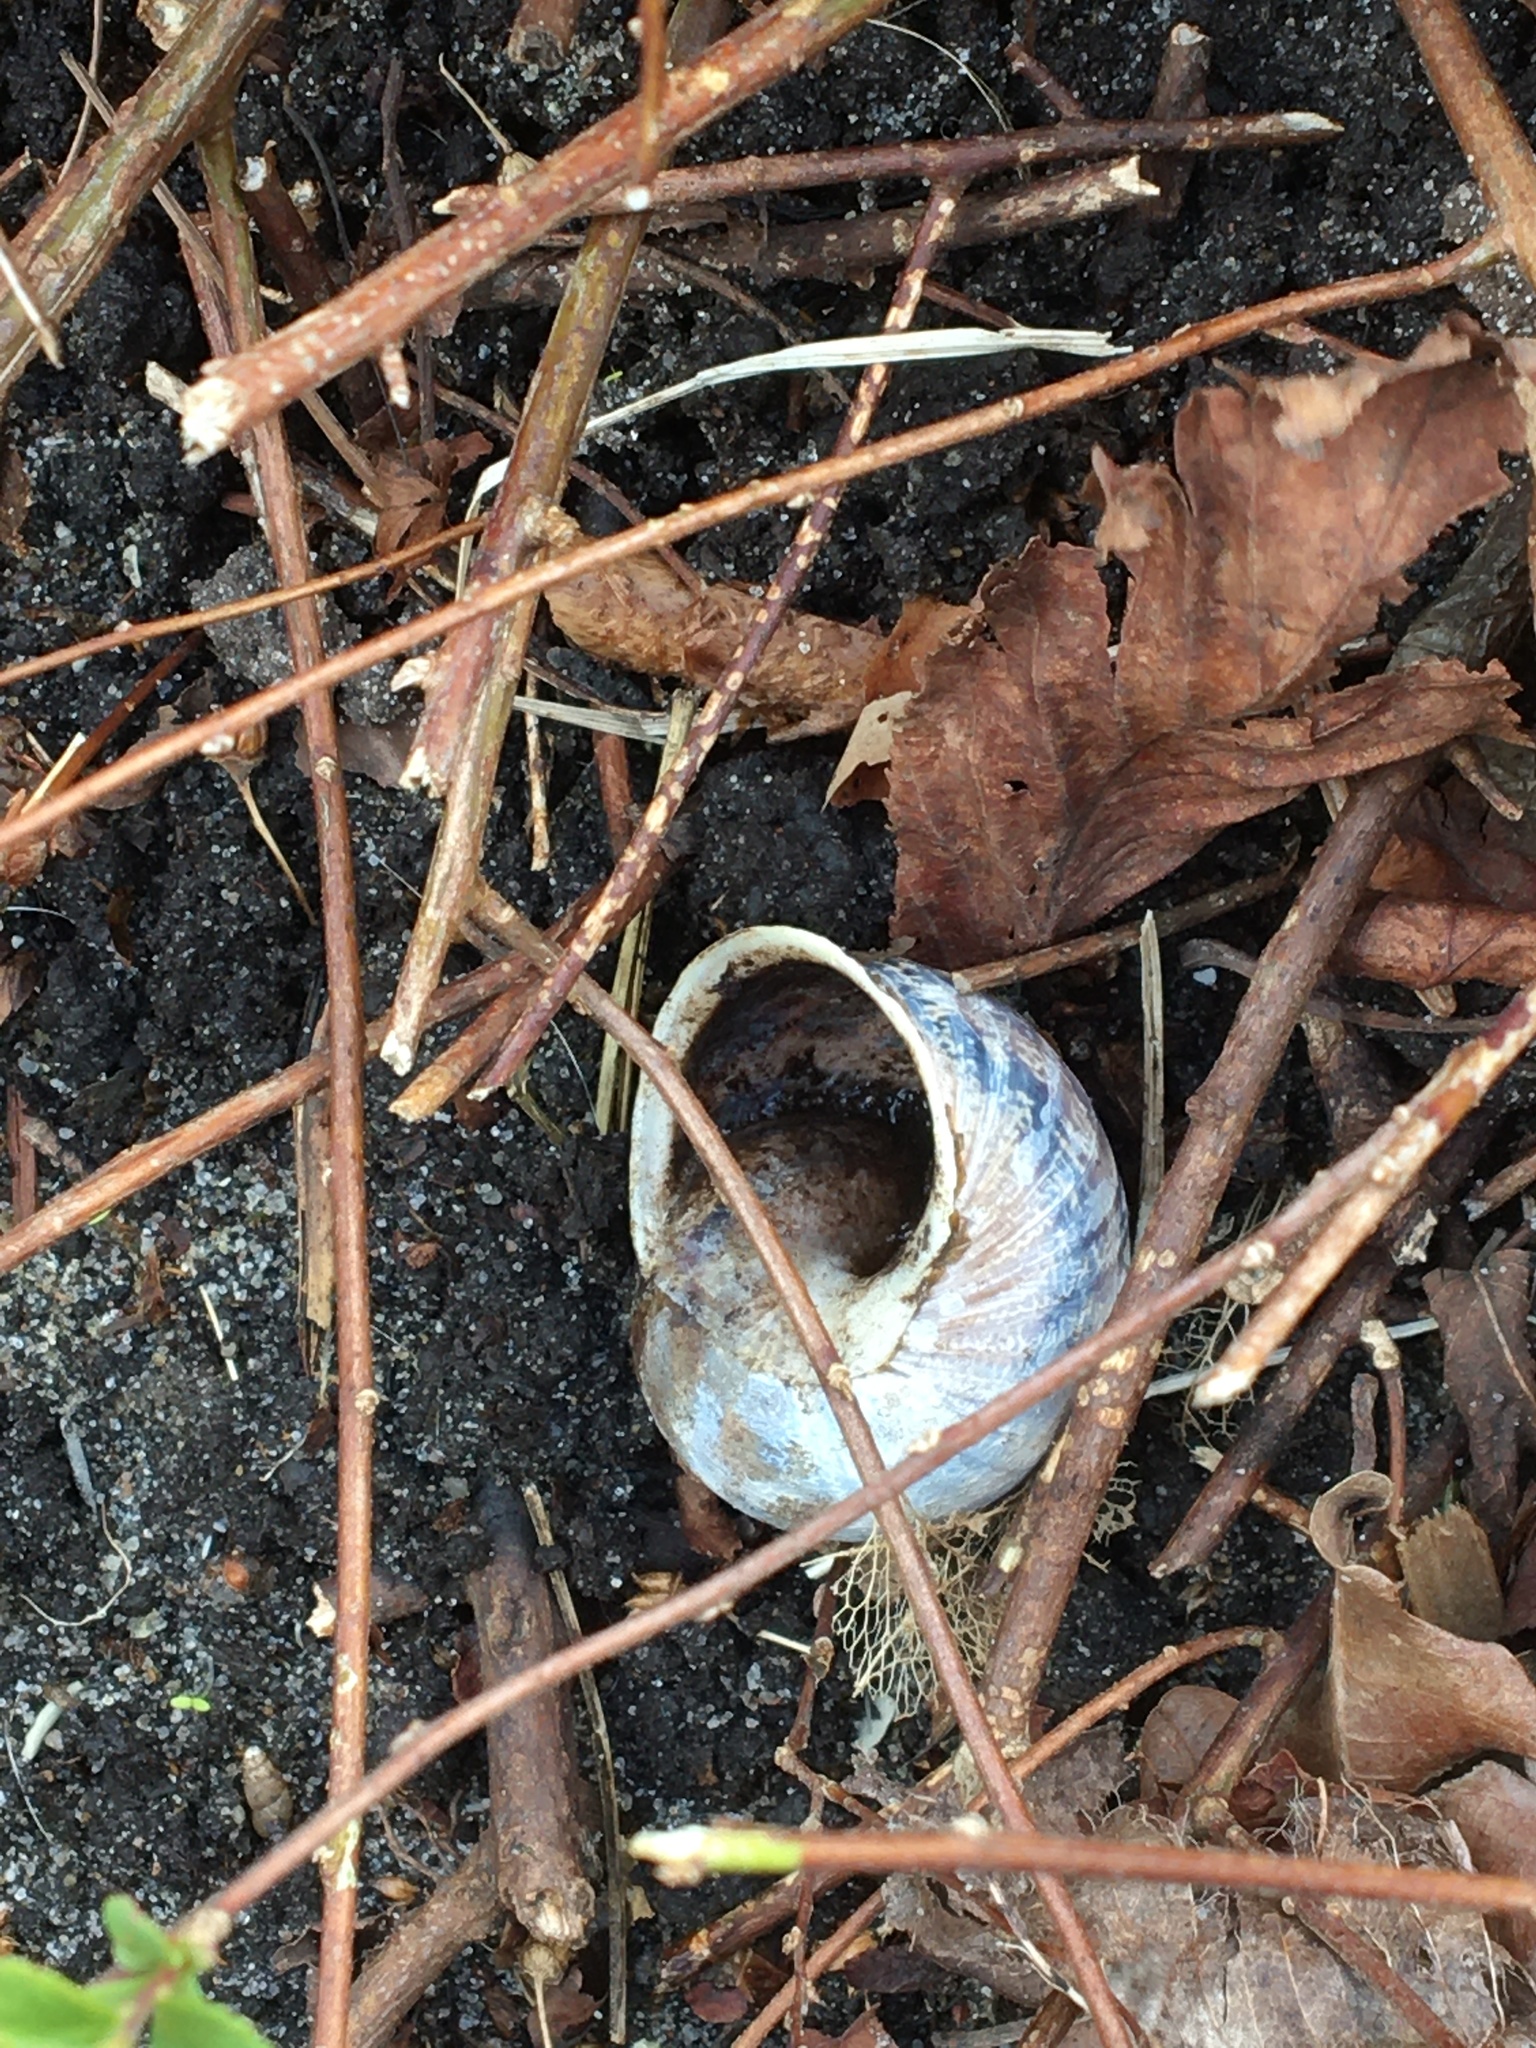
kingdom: Animalia
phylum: Mollusca
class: Gastropoda
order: Stylommatophora
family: Helicidae
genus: Cornu
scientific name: Cornu aspersum
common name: Brown garden snail
